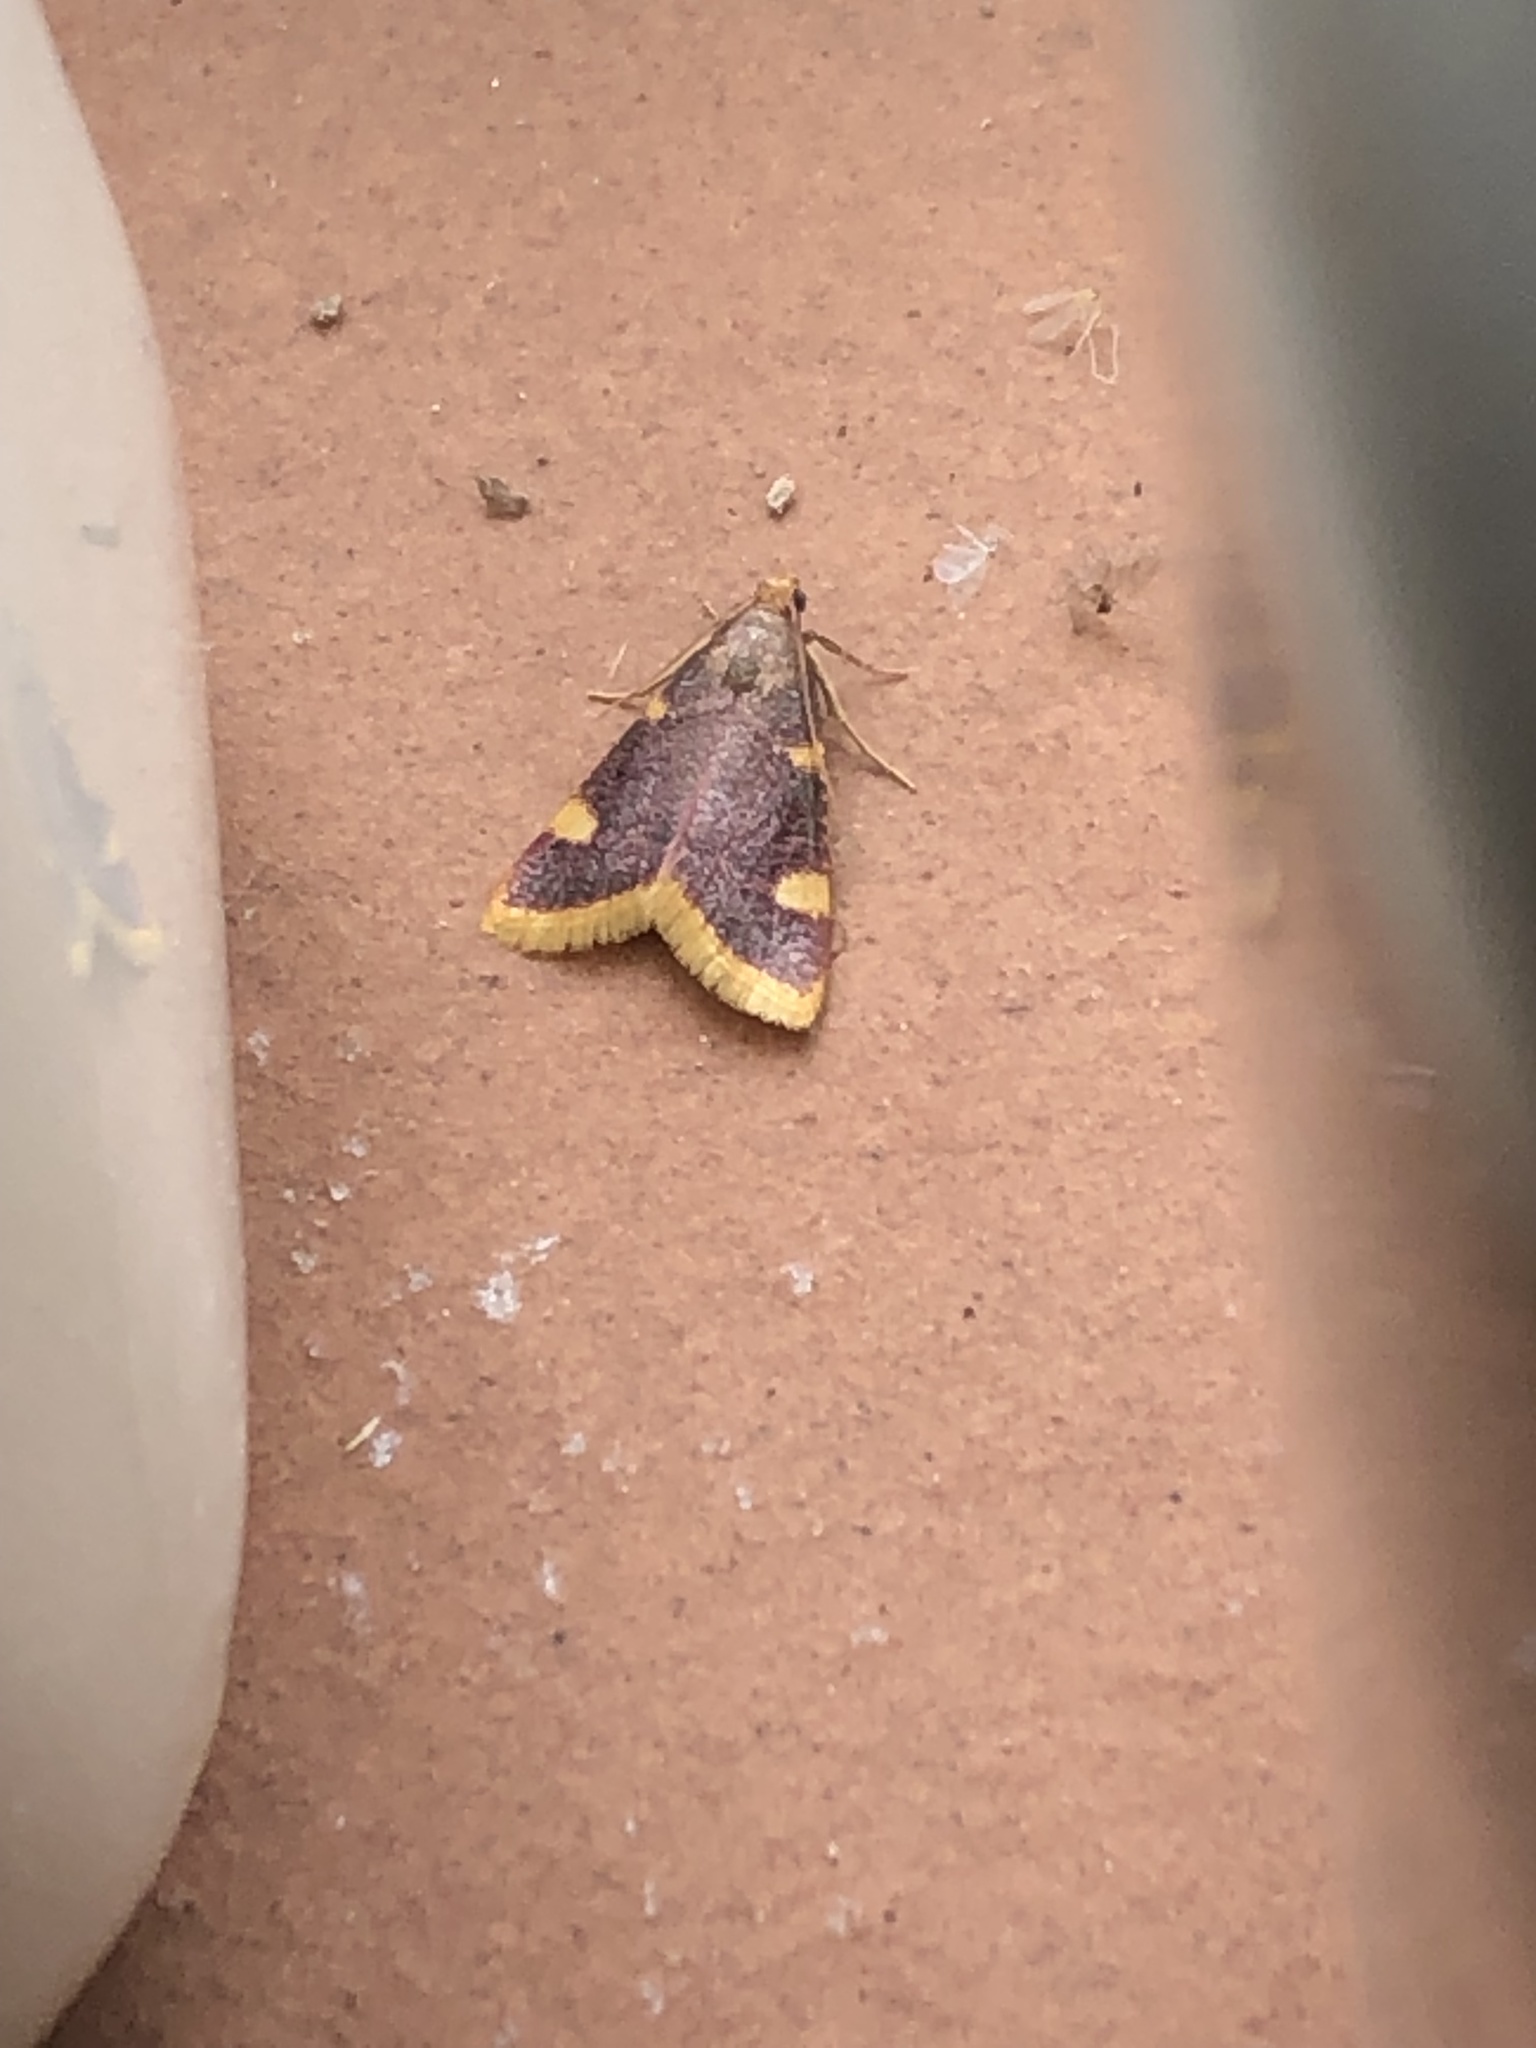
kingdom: Animalia
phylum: Arthropoda
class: Insecta
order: Lepidoptera
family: Pyralidae
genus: Hypsopygia
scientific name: Hypsopygia costalis
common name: Gold triangle
